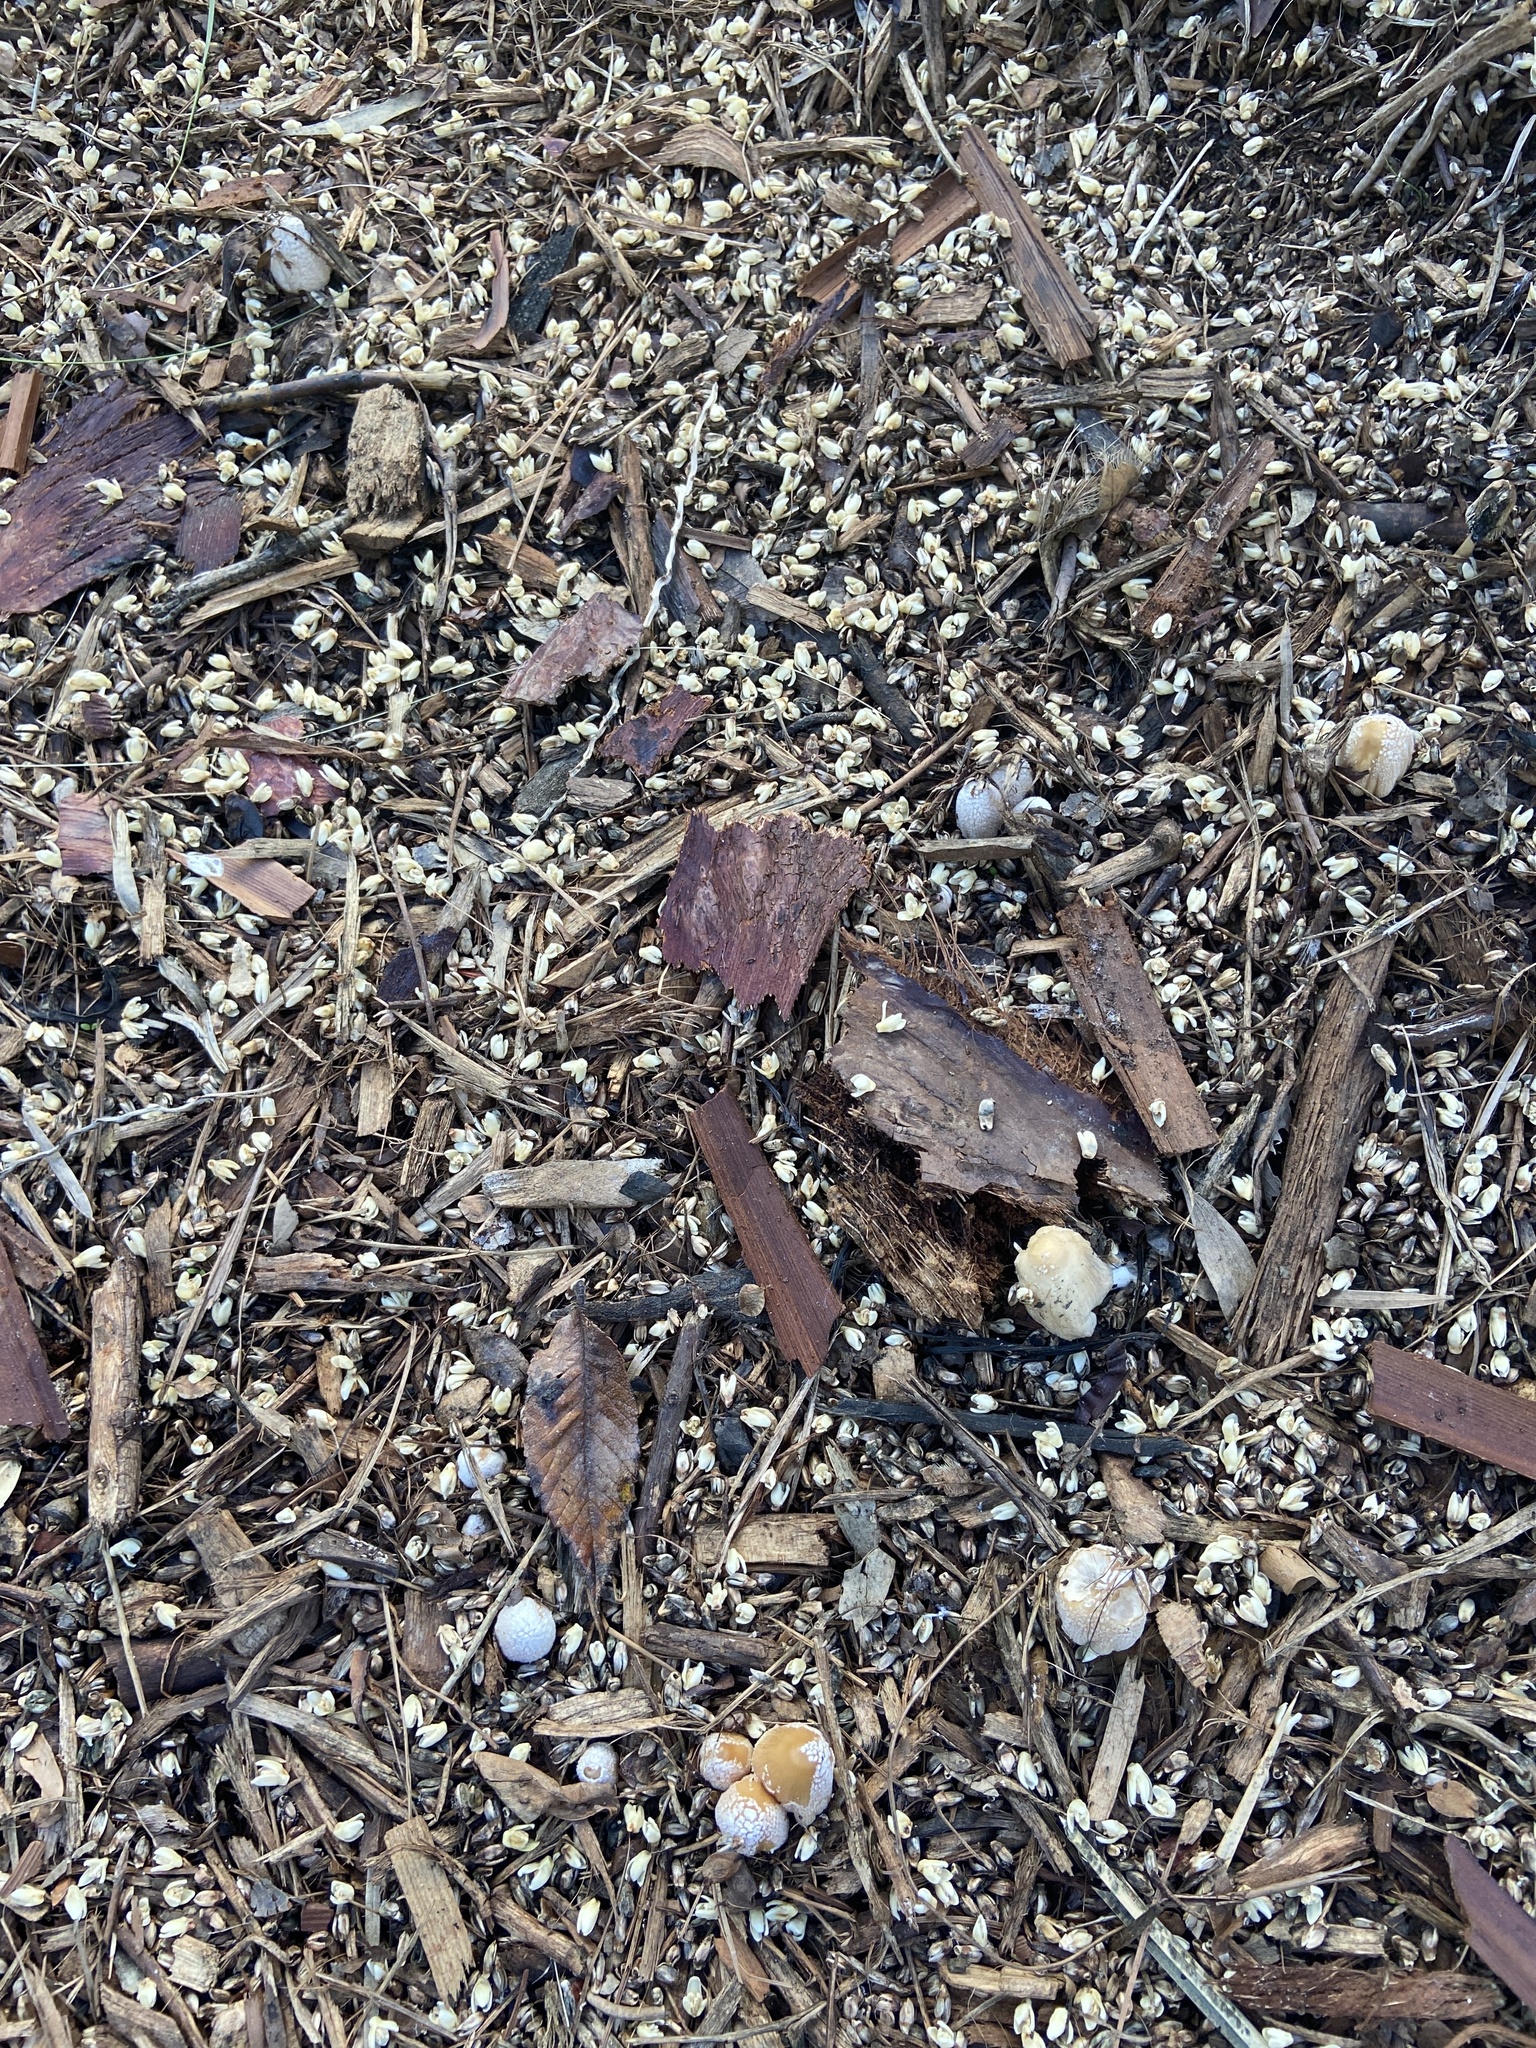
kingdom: Fungi
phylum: Basidiomycota
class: Agaricomycetes
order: Agaricales
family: Psathyrellaceae
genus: Coprinellus
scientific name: Coprinellus flocculosus
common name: Flocculose inkcap
